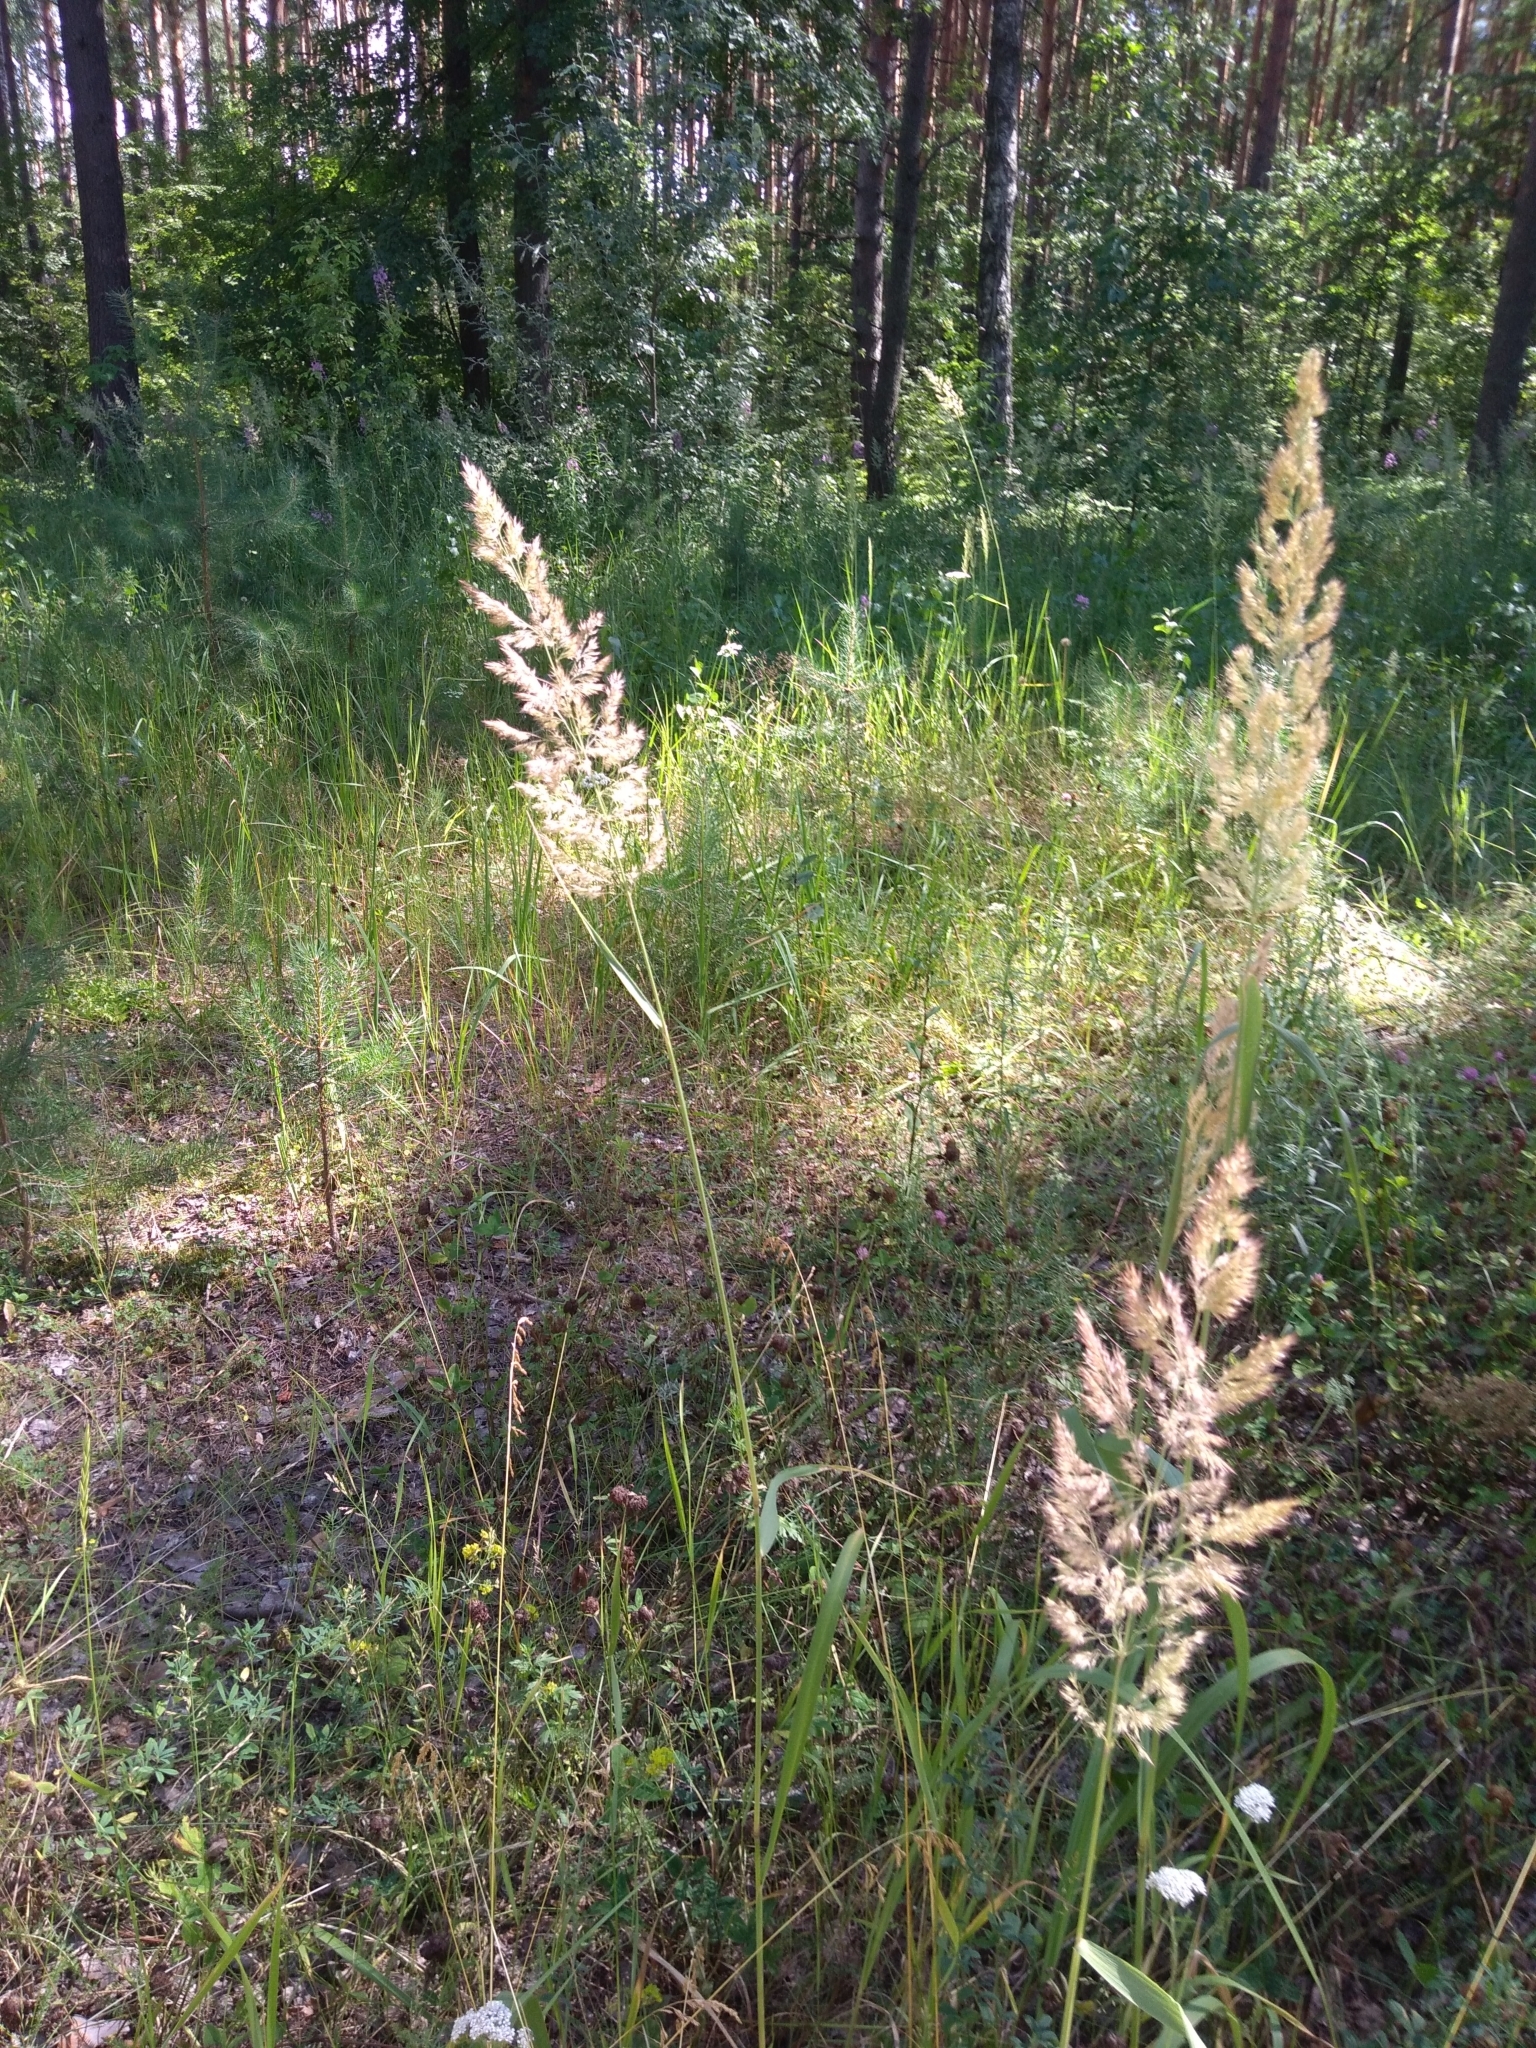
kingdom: Plantae
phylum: Tracheophyta
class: Liliopsida
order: Poales
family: Poaceae
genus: Calamagrostis
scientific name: Calamagrostis epigejos
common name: Wood small-reed
